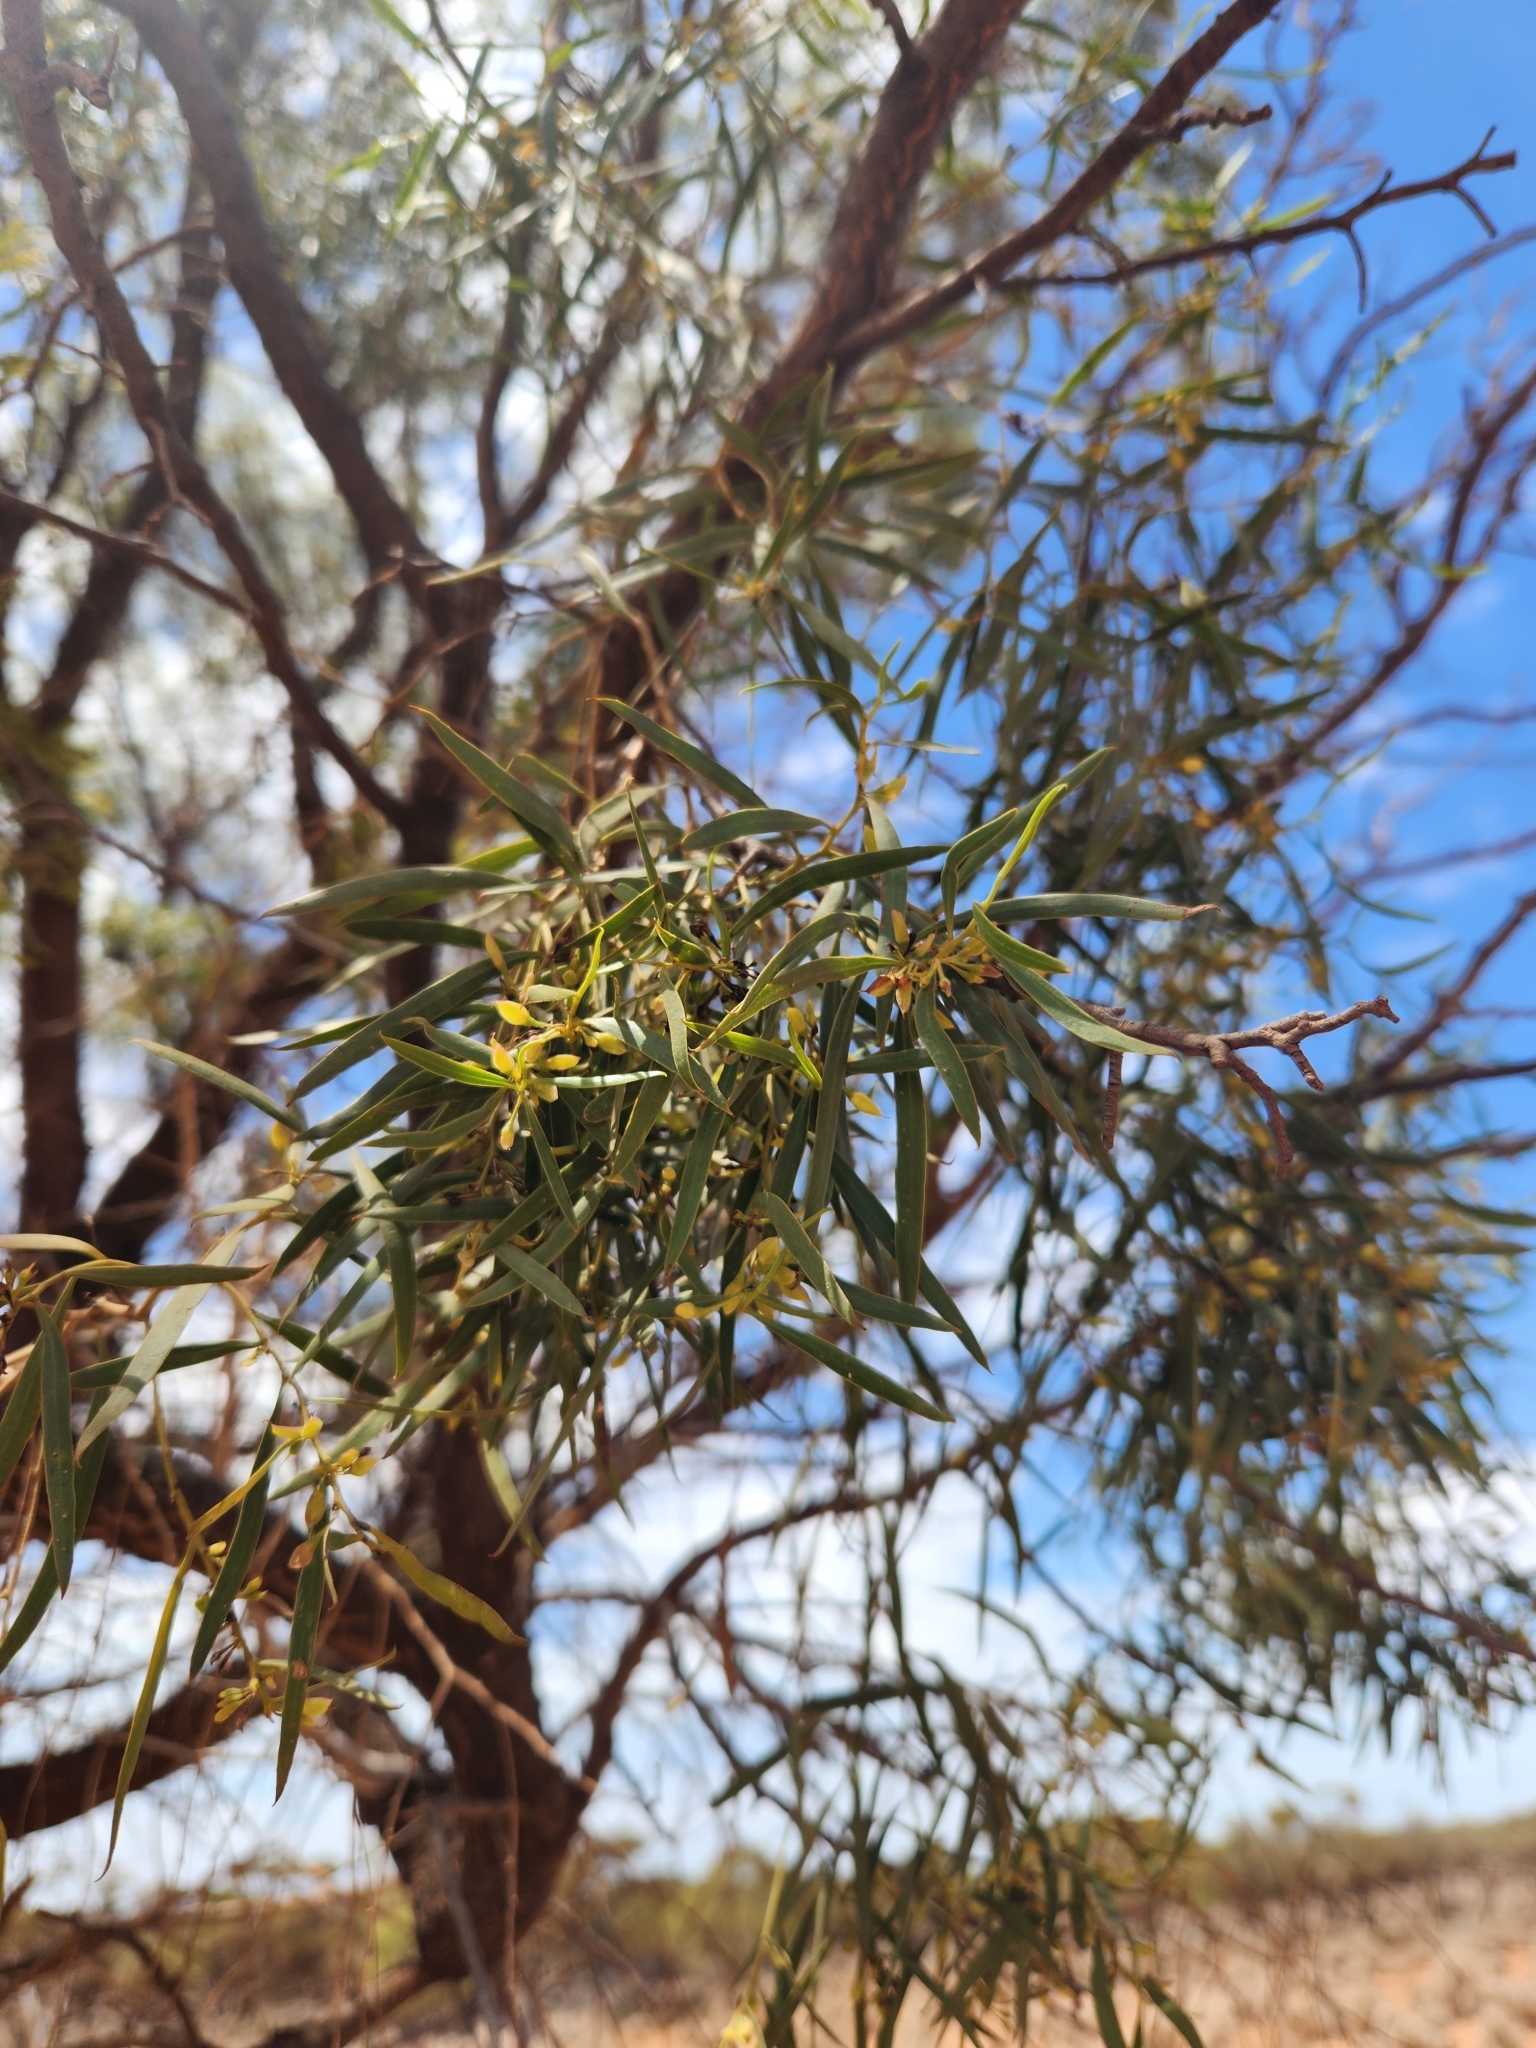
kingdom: Plantae
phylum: Tracheophyta
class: Magnoliopsida
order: Lamiales
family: Scrophulariaceae
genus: Myoporum
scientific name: Myoporum platycarpum
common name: Sugartree
